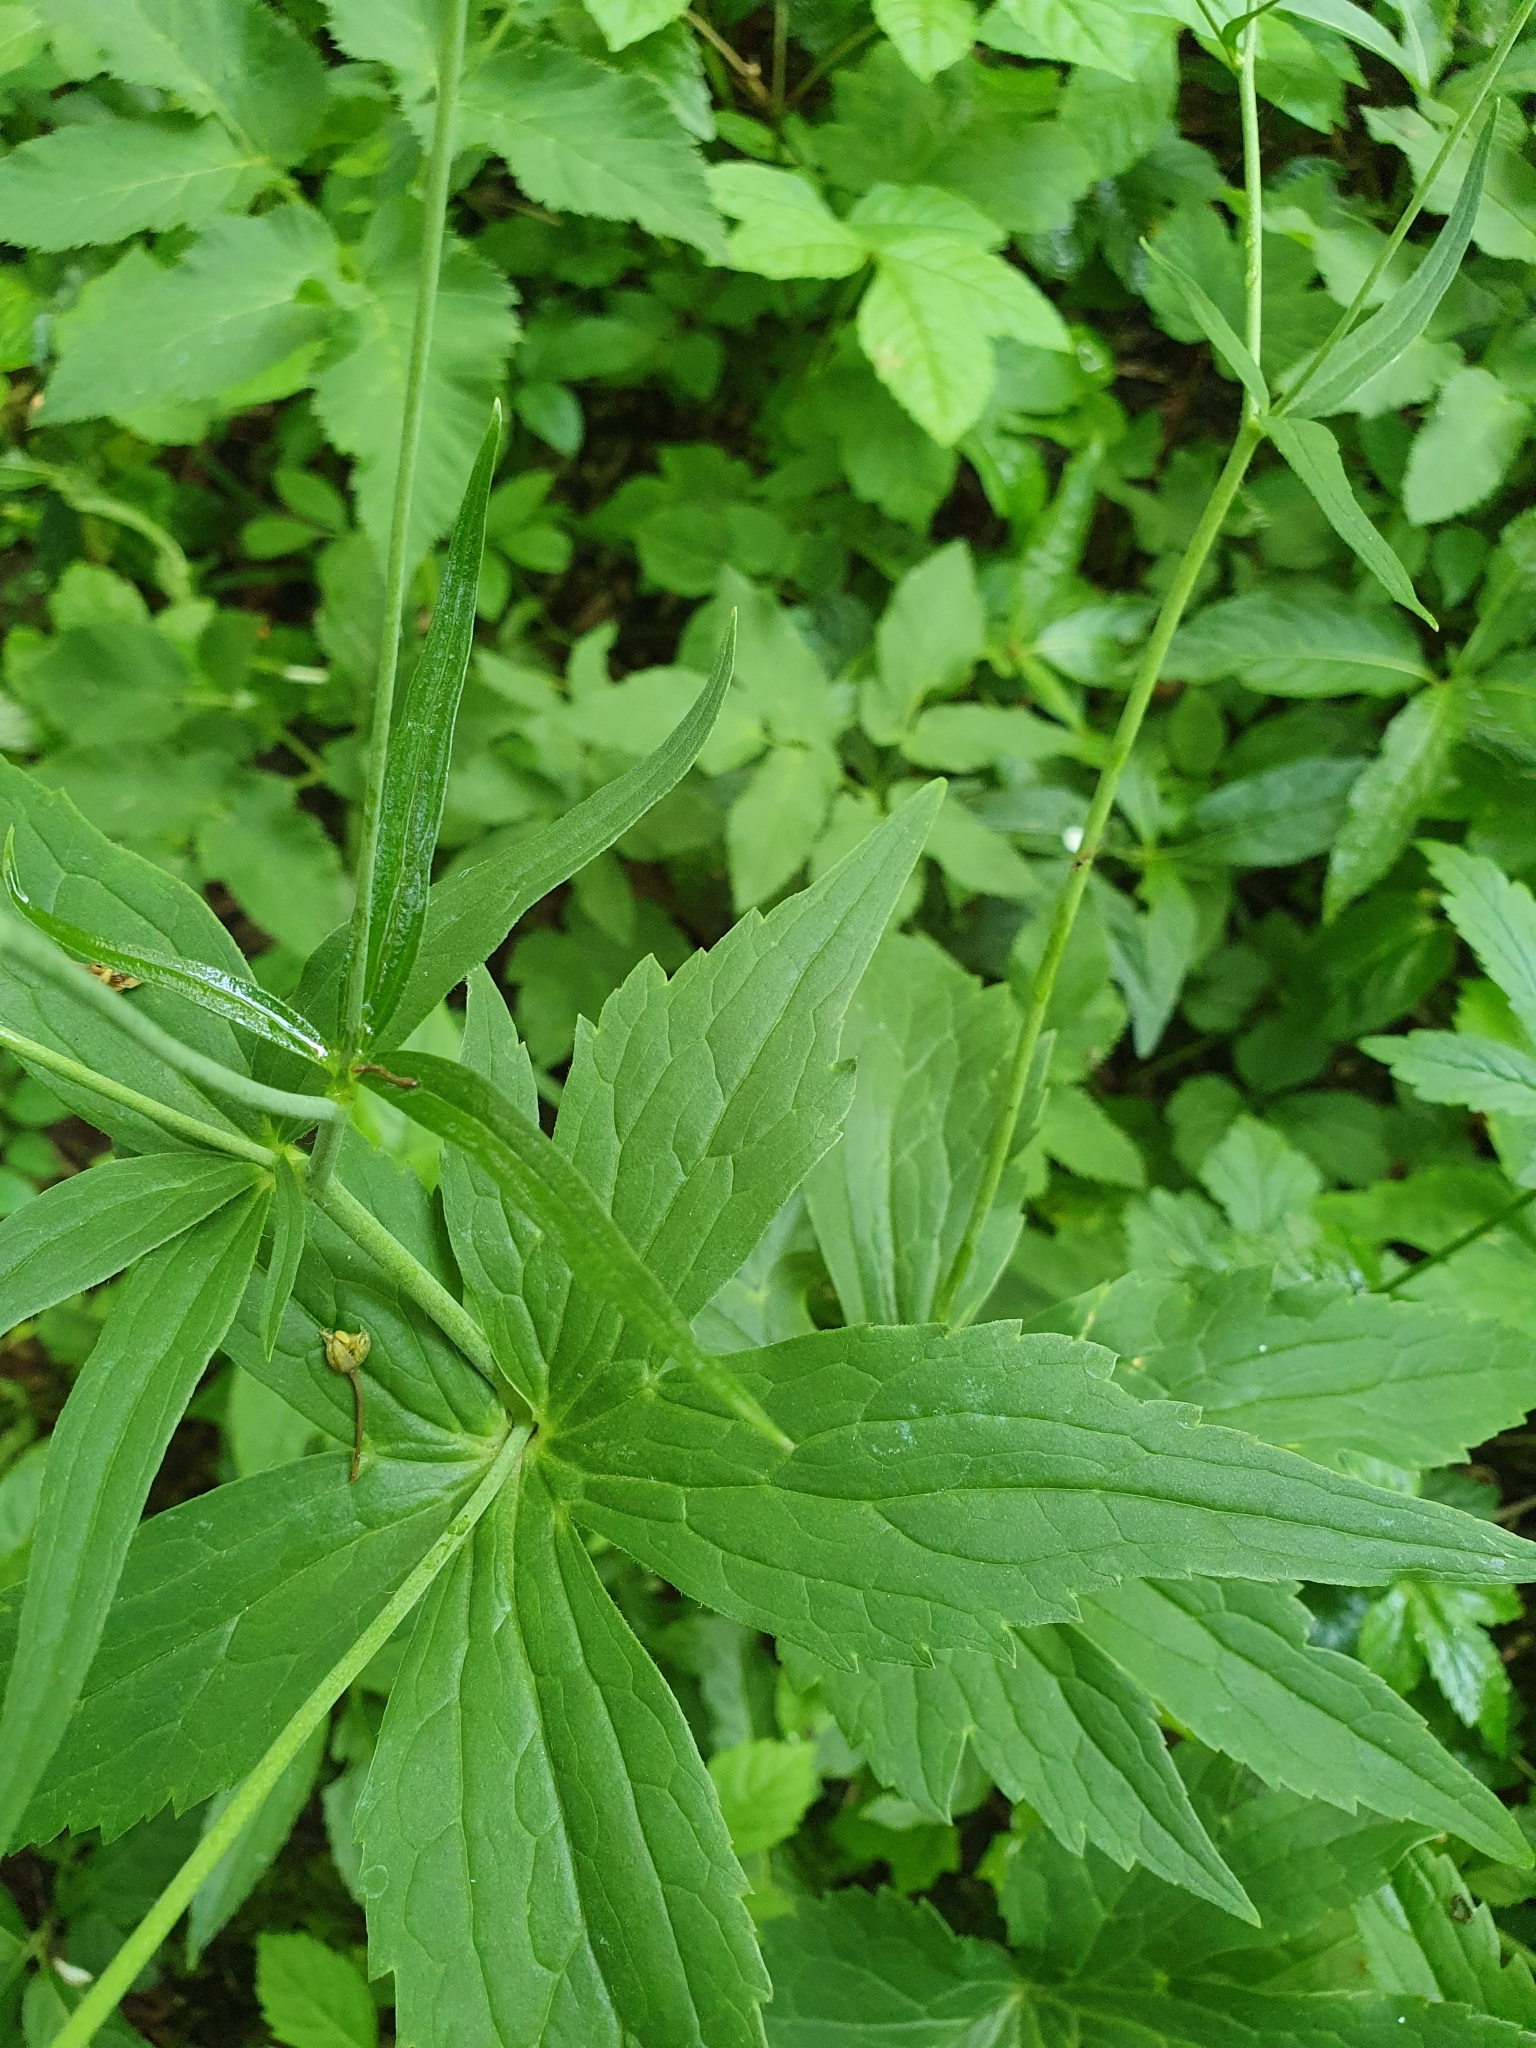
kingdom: Plantae
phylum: Tracheophyta
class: Magnoliopsida
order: Ranunculales
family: Ranunculaceae
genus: Ranunculus
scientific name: Ranunculus platanifolius
